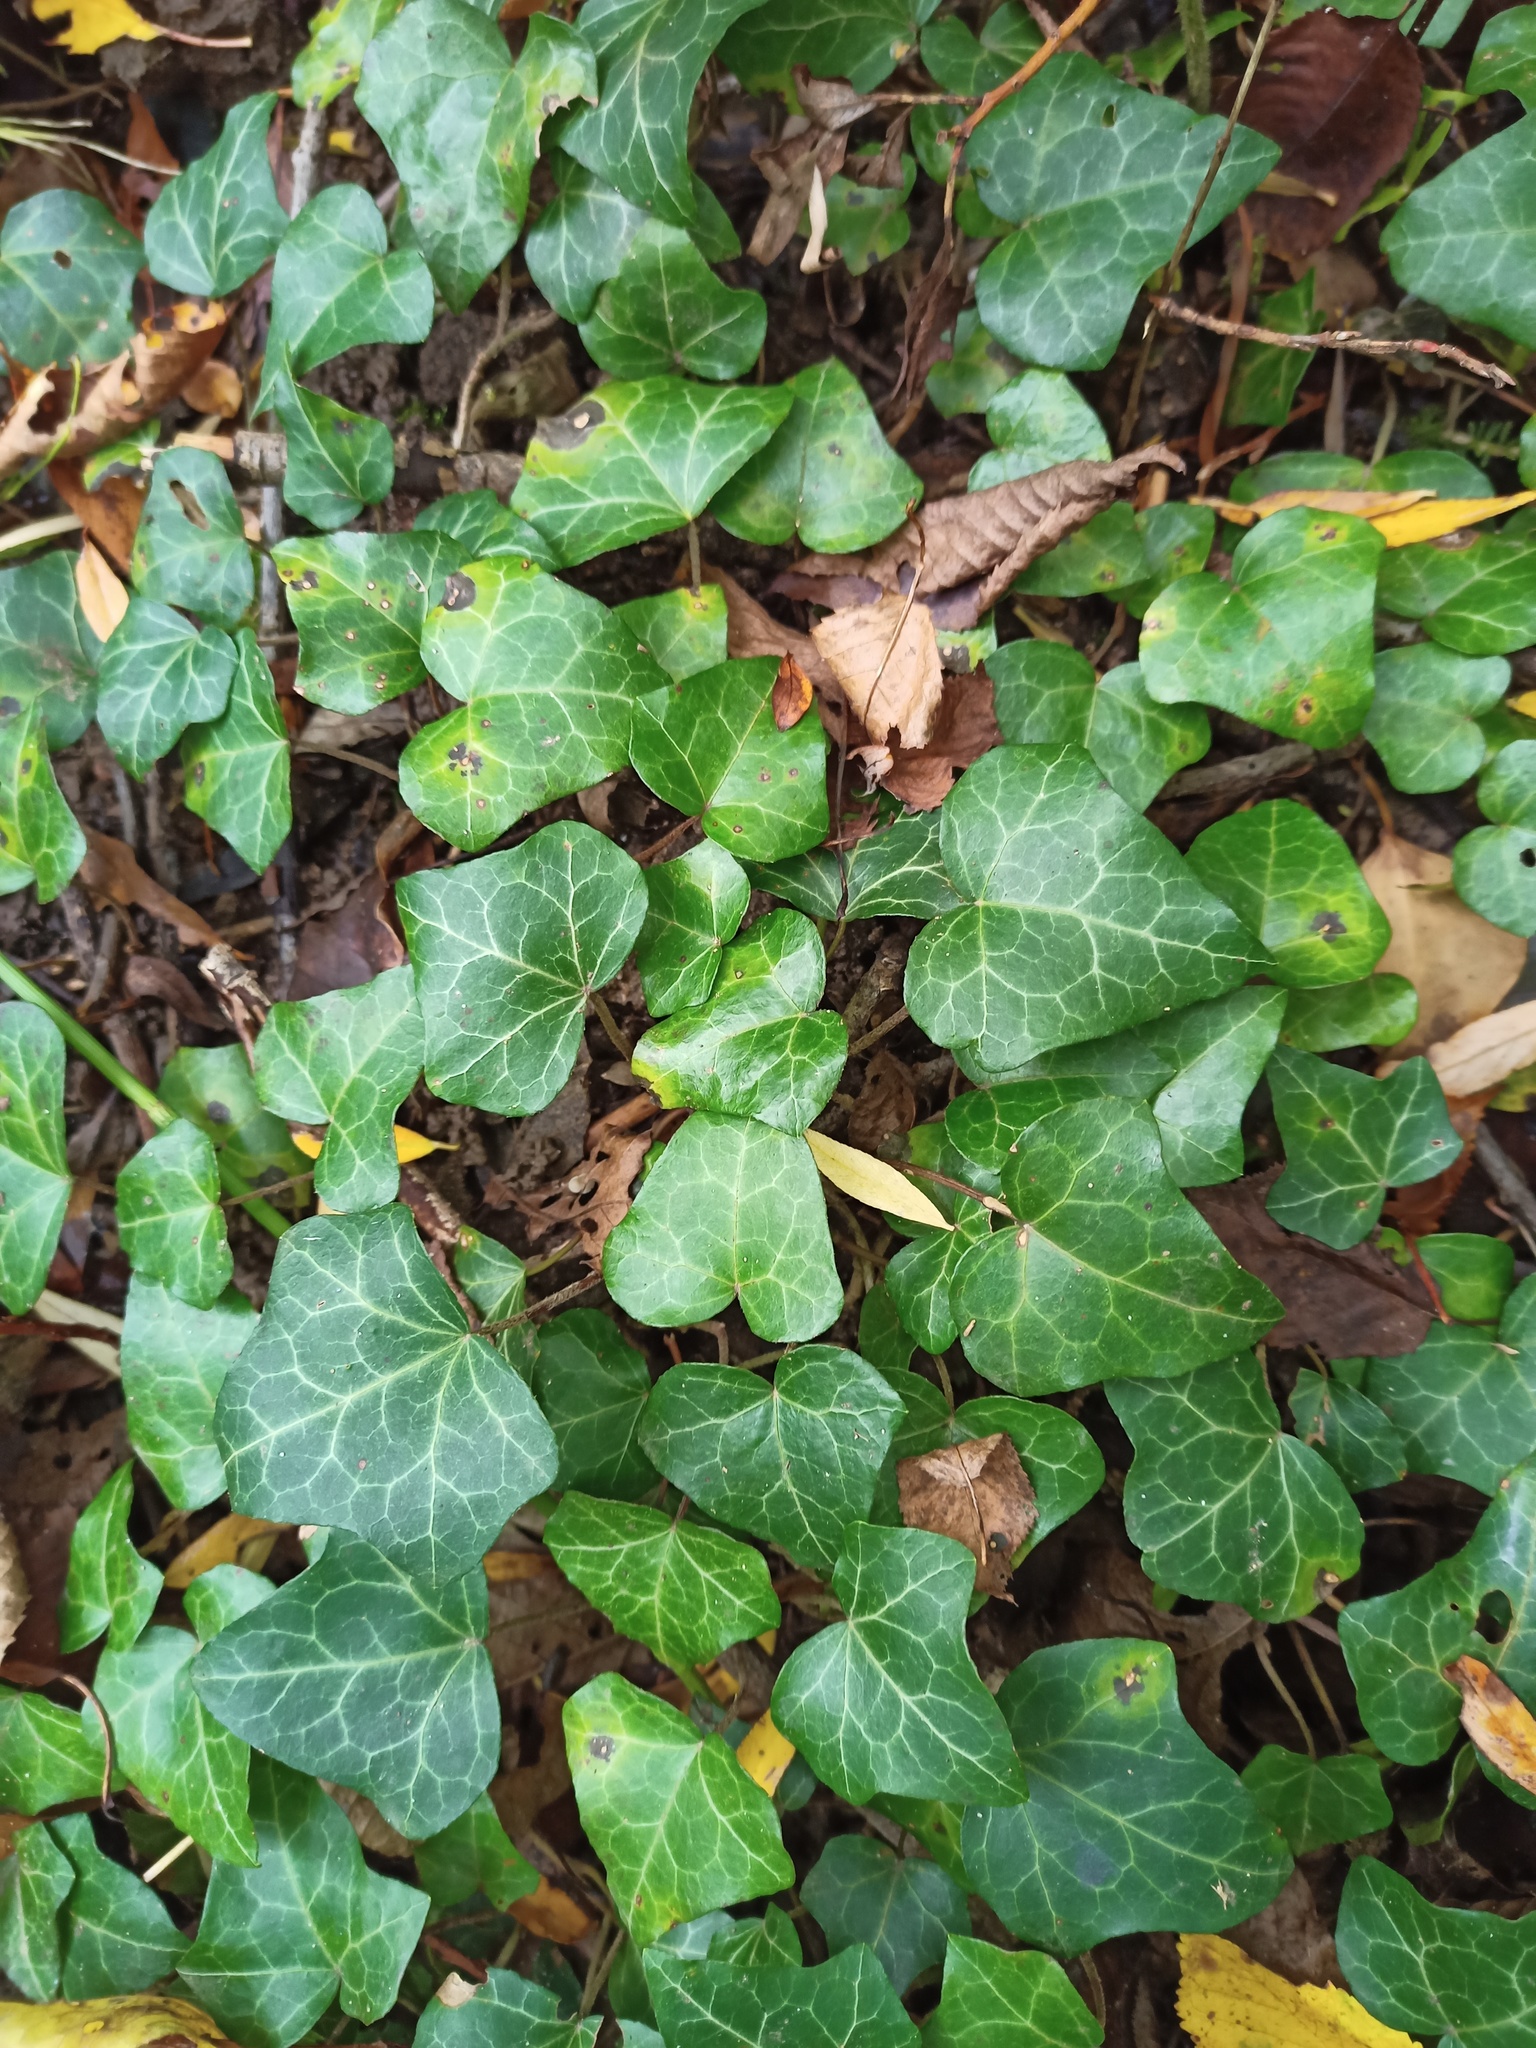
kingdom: Plantae
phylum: Tracheophyta
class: Magnoliopsida
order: Apiales
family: Araliaceae
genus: Hedera
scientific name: Hedera helix
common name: Ivy
